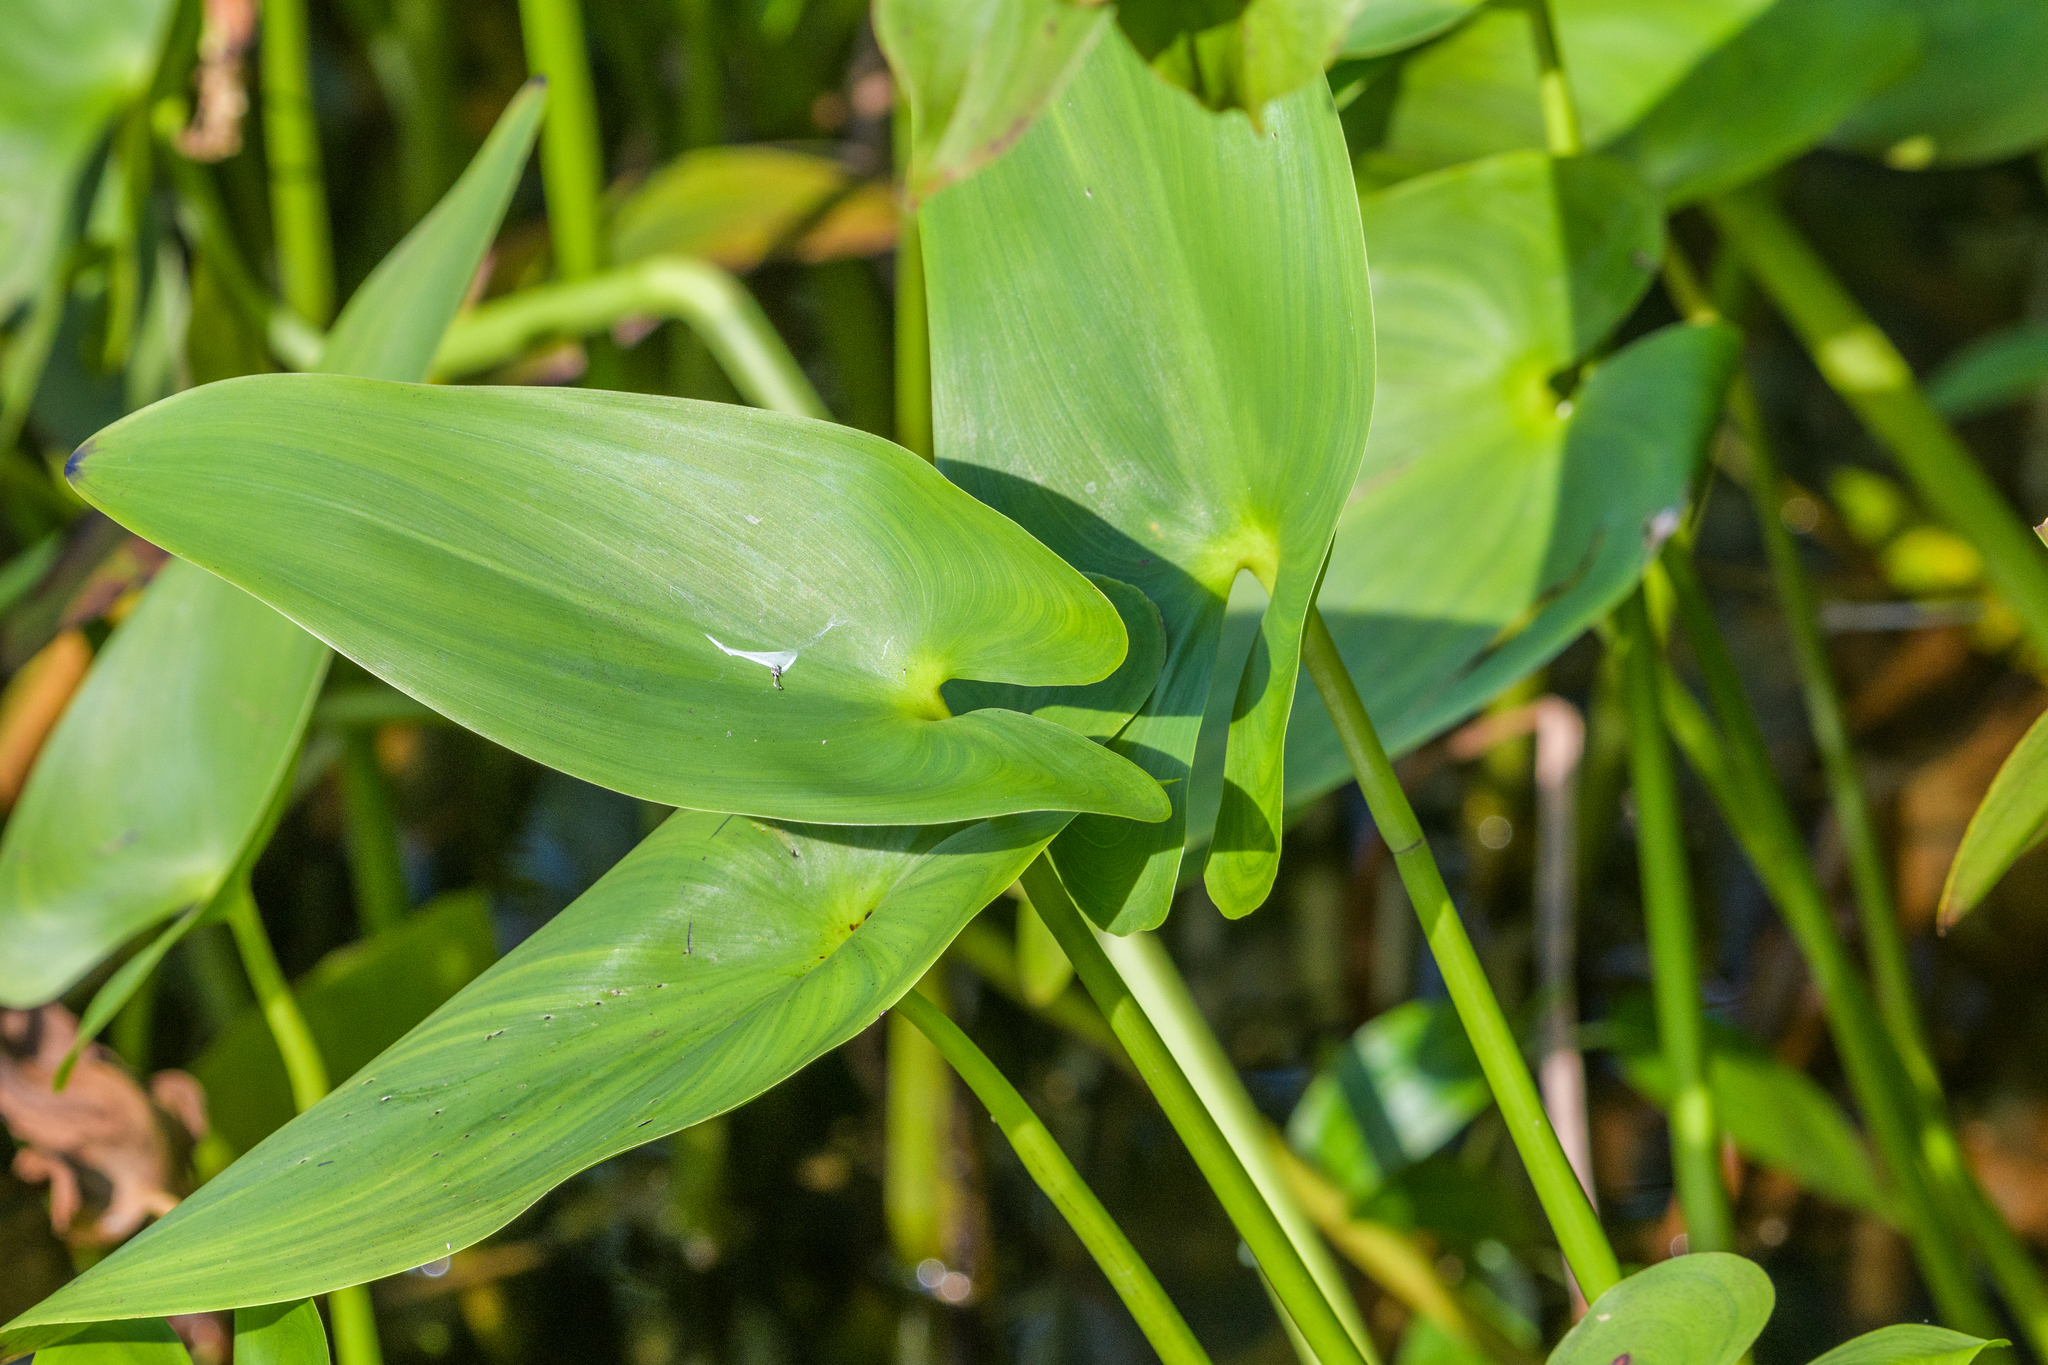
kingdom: Plantae
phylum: Tracheophyta
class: Liliopsida
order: Commelinales
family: Pontederiaceae
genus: Pontederia
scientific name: Pontederia cordata
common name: Pickerelweed
